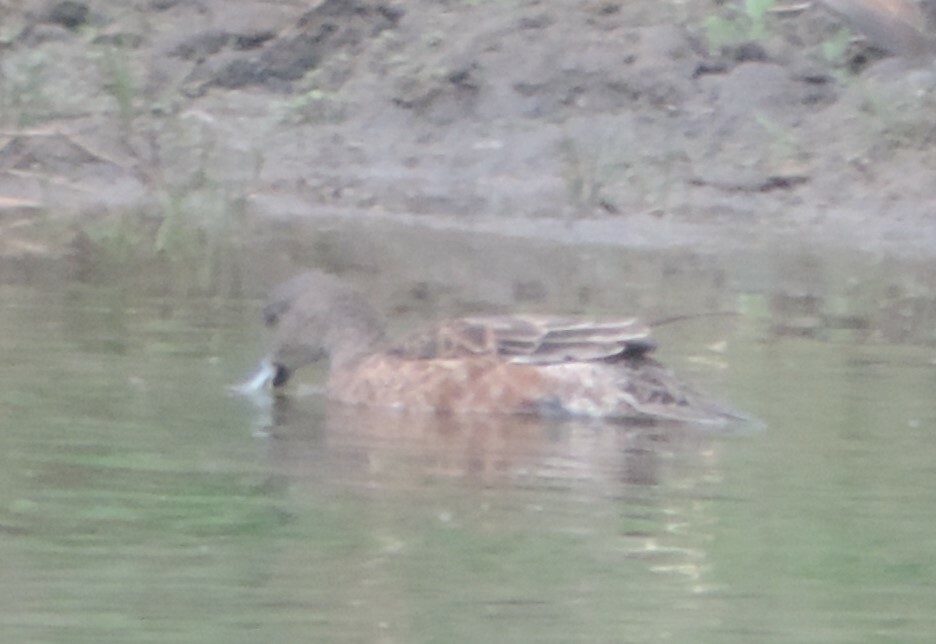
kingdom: Animalia
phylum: Chordata
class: Aves
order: Anseriformes
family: Anatidae
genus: Mareca
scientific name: Mareca americana
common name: American wigeon
